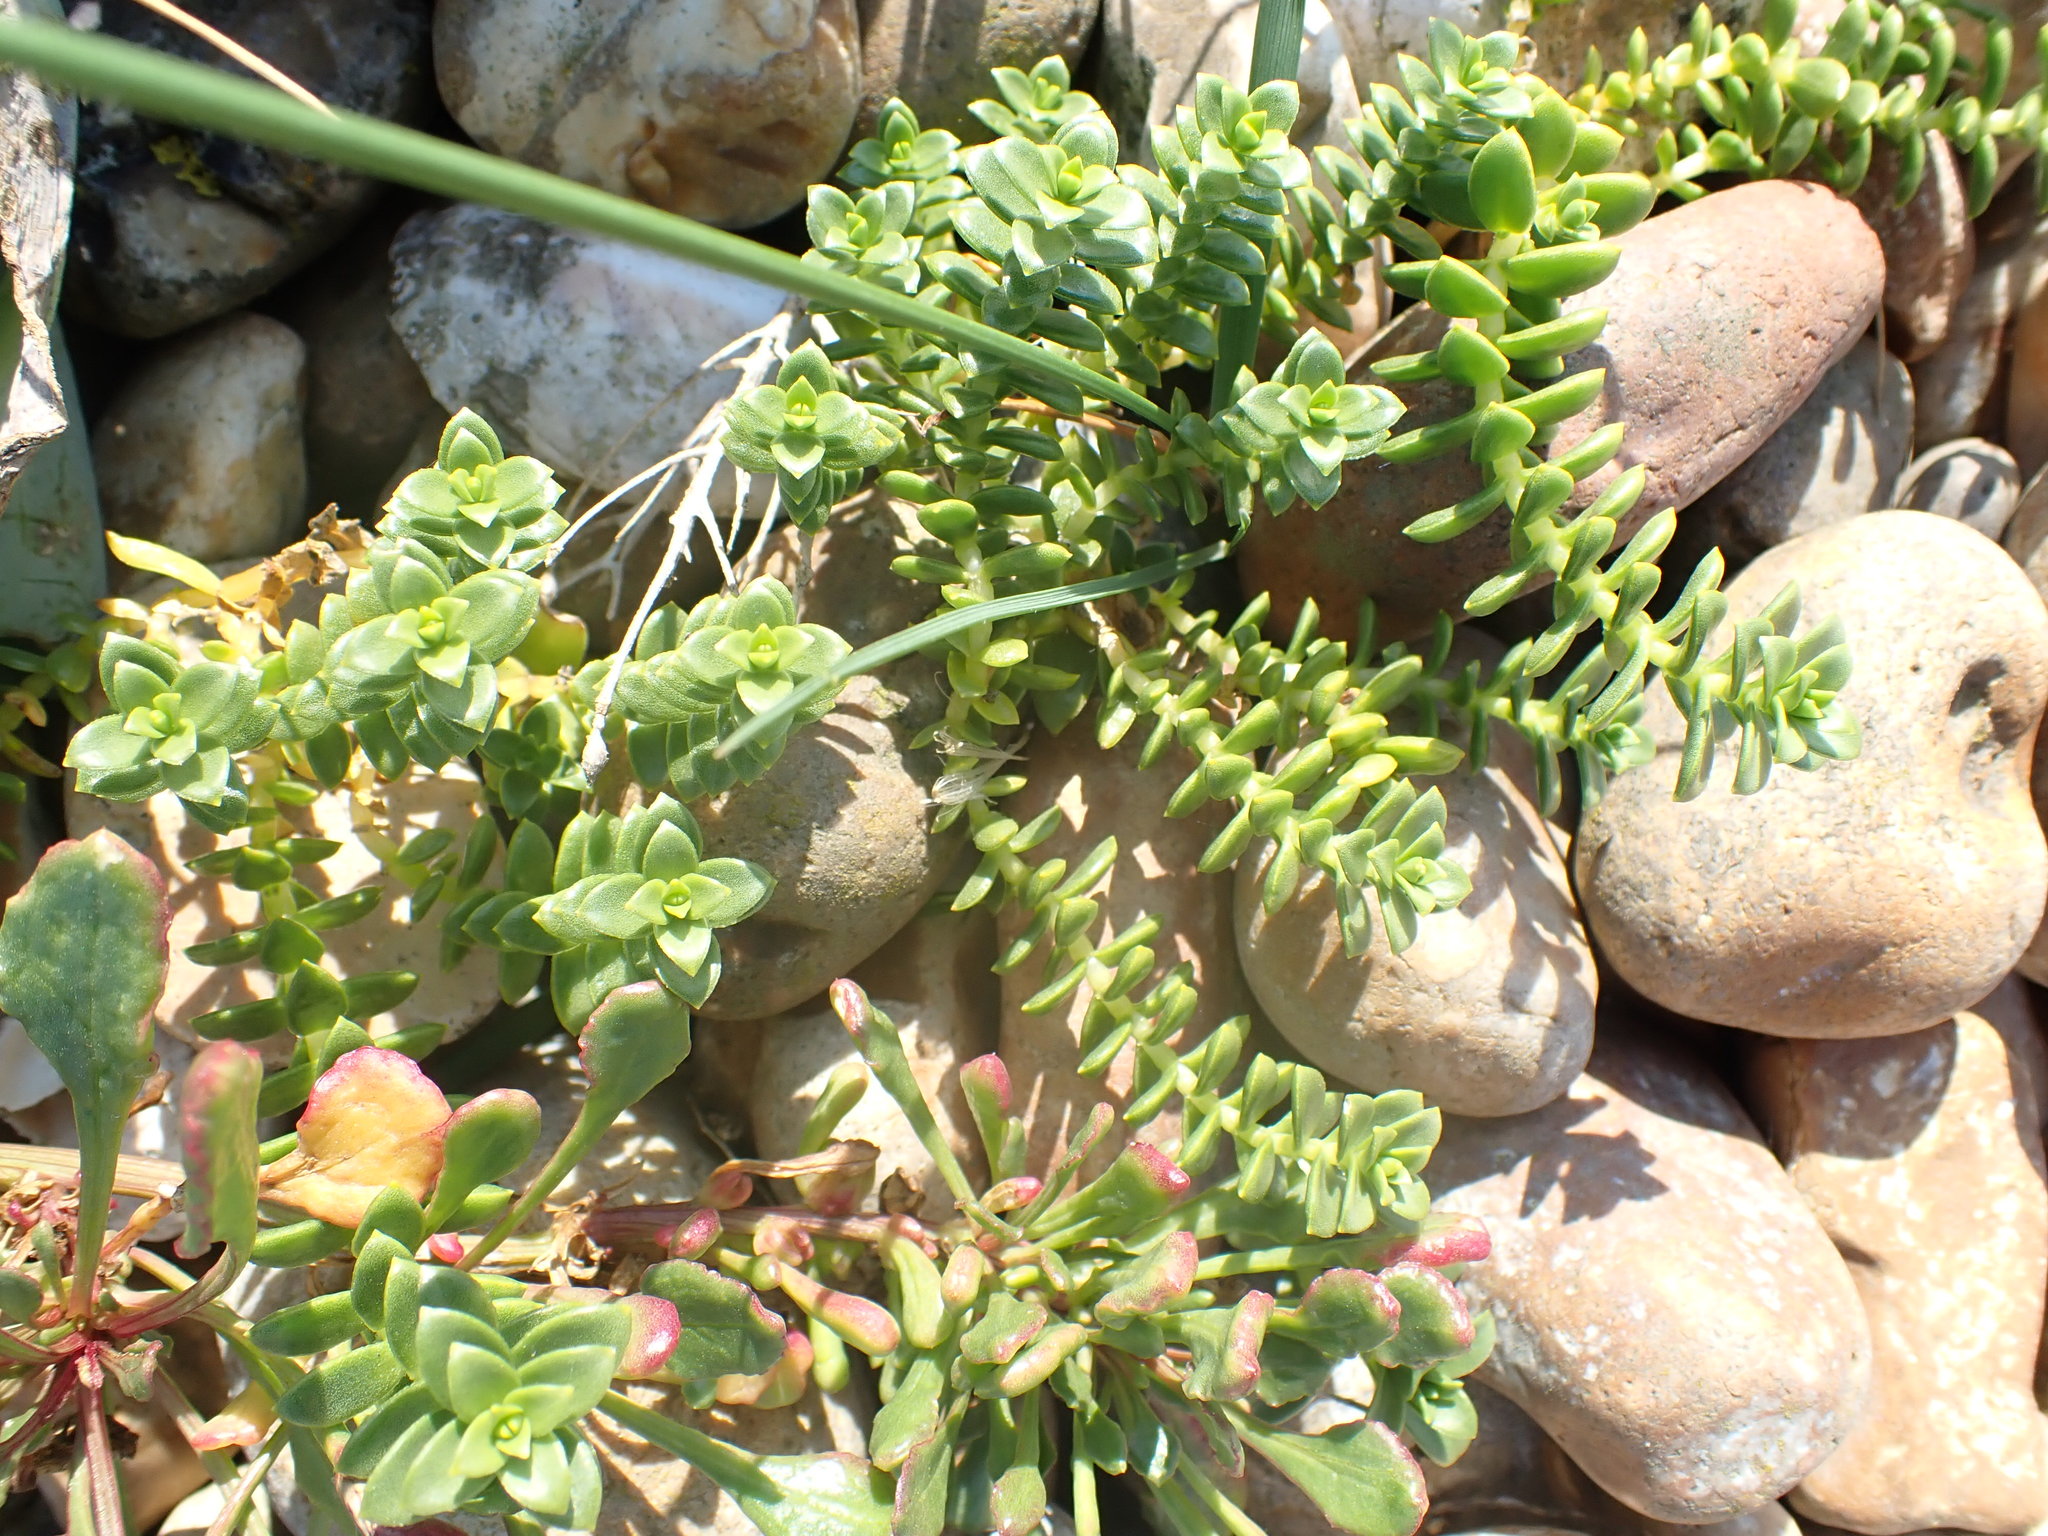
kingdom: Plantae
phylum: Tracheophyta
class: Magnoliopsida
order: Caryophyllales
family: Caryophyllaceae
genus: Honckenya
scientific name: Honckenya peploides
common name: Sea sandwort
